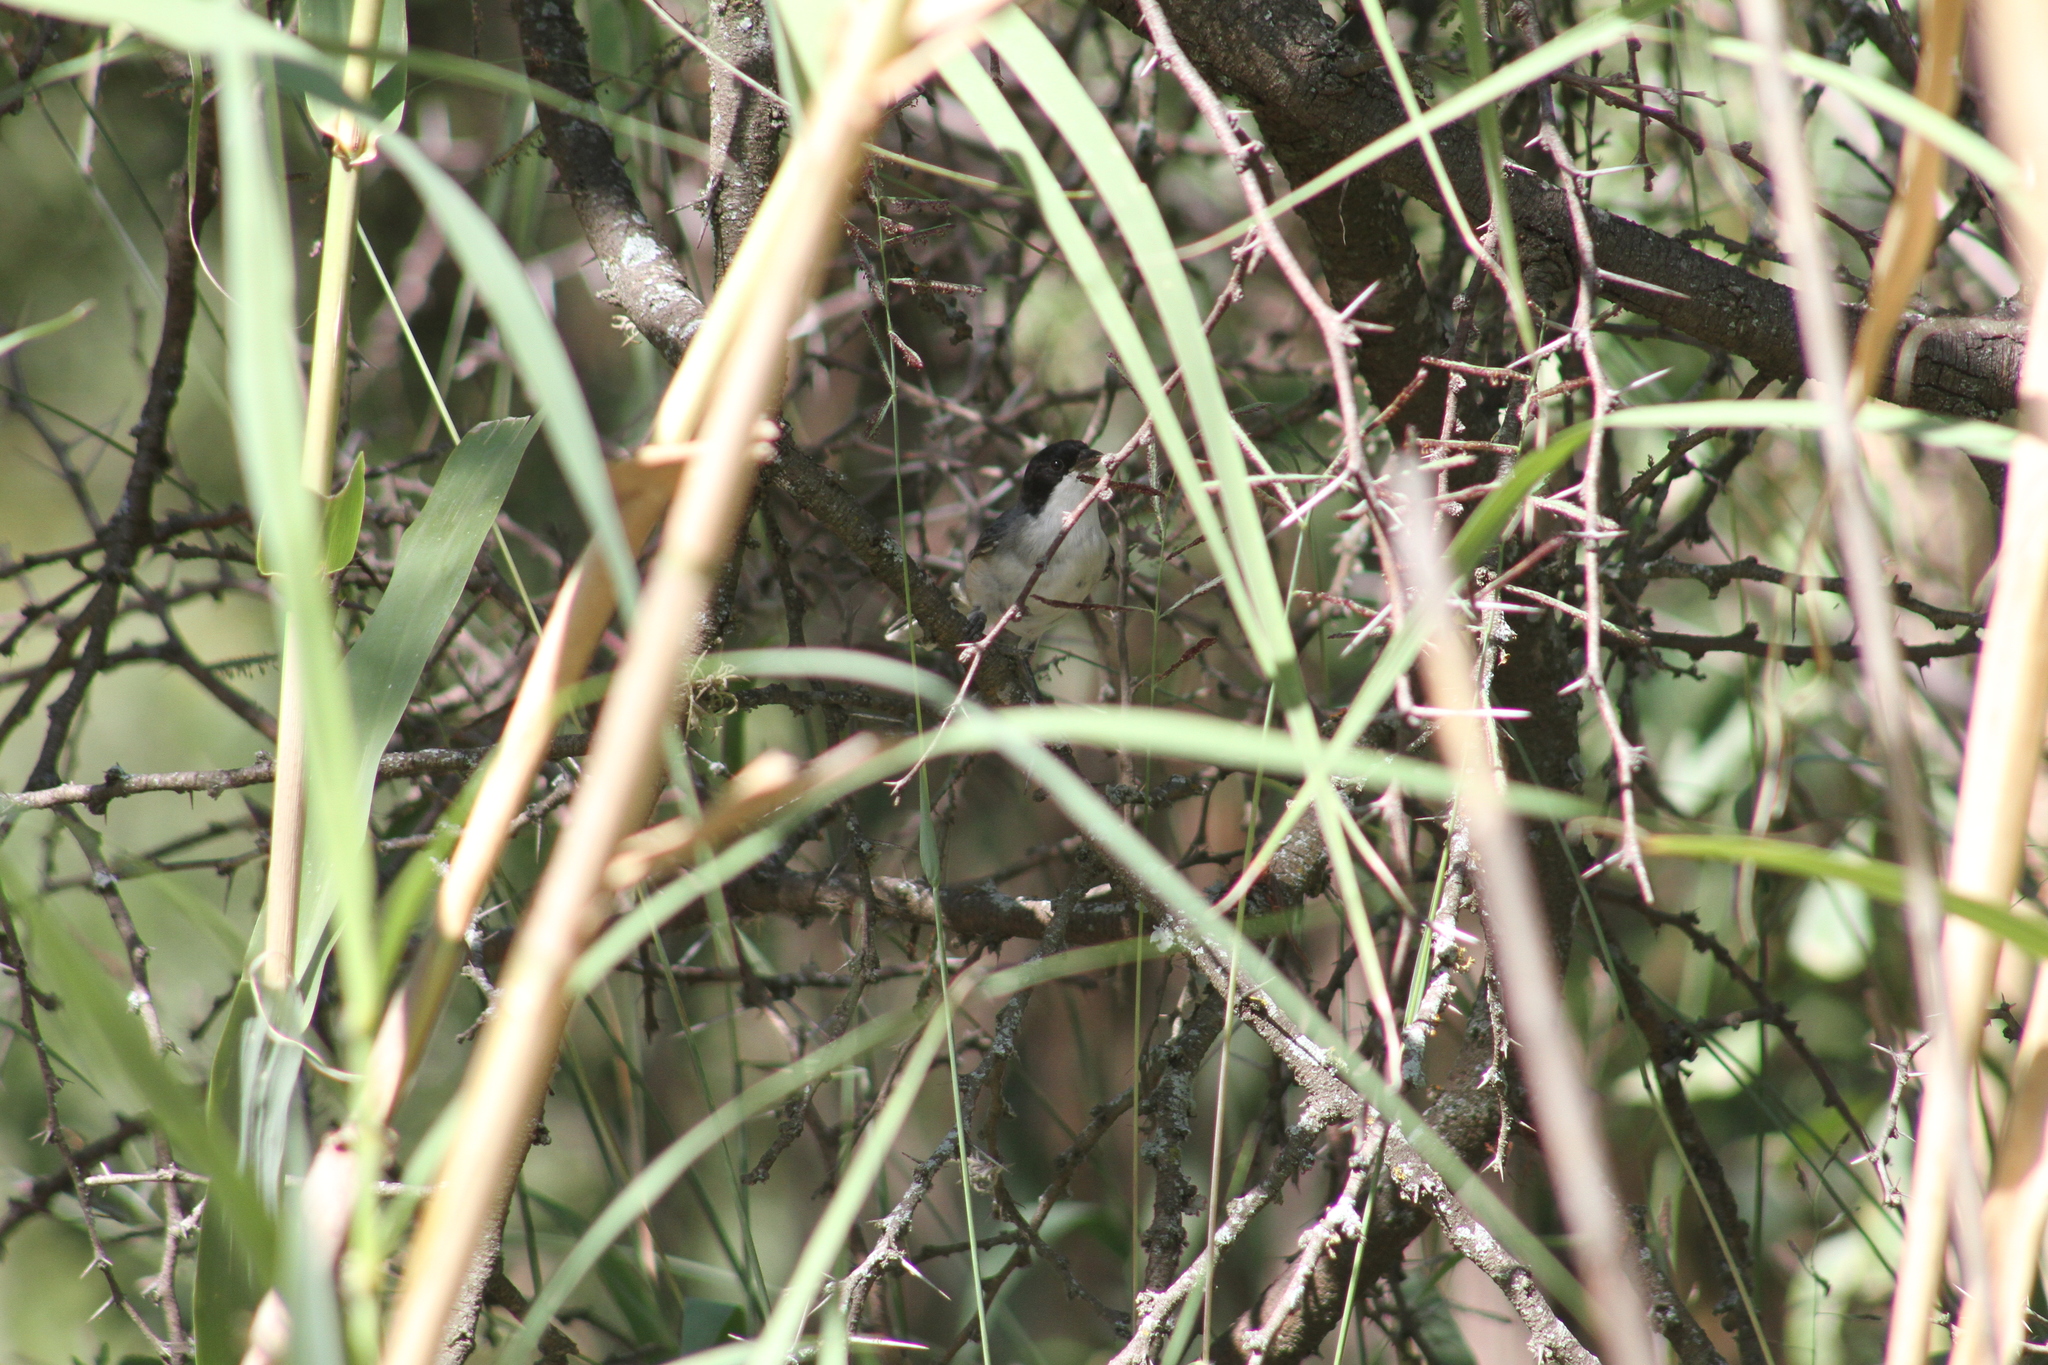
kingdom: Animalia
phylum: Chordata
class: Aves
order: Passeriformes
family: Thraupidae
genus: Microspingus
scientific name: Microspingus melanoleucus
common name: Black-capped warbling-finch
